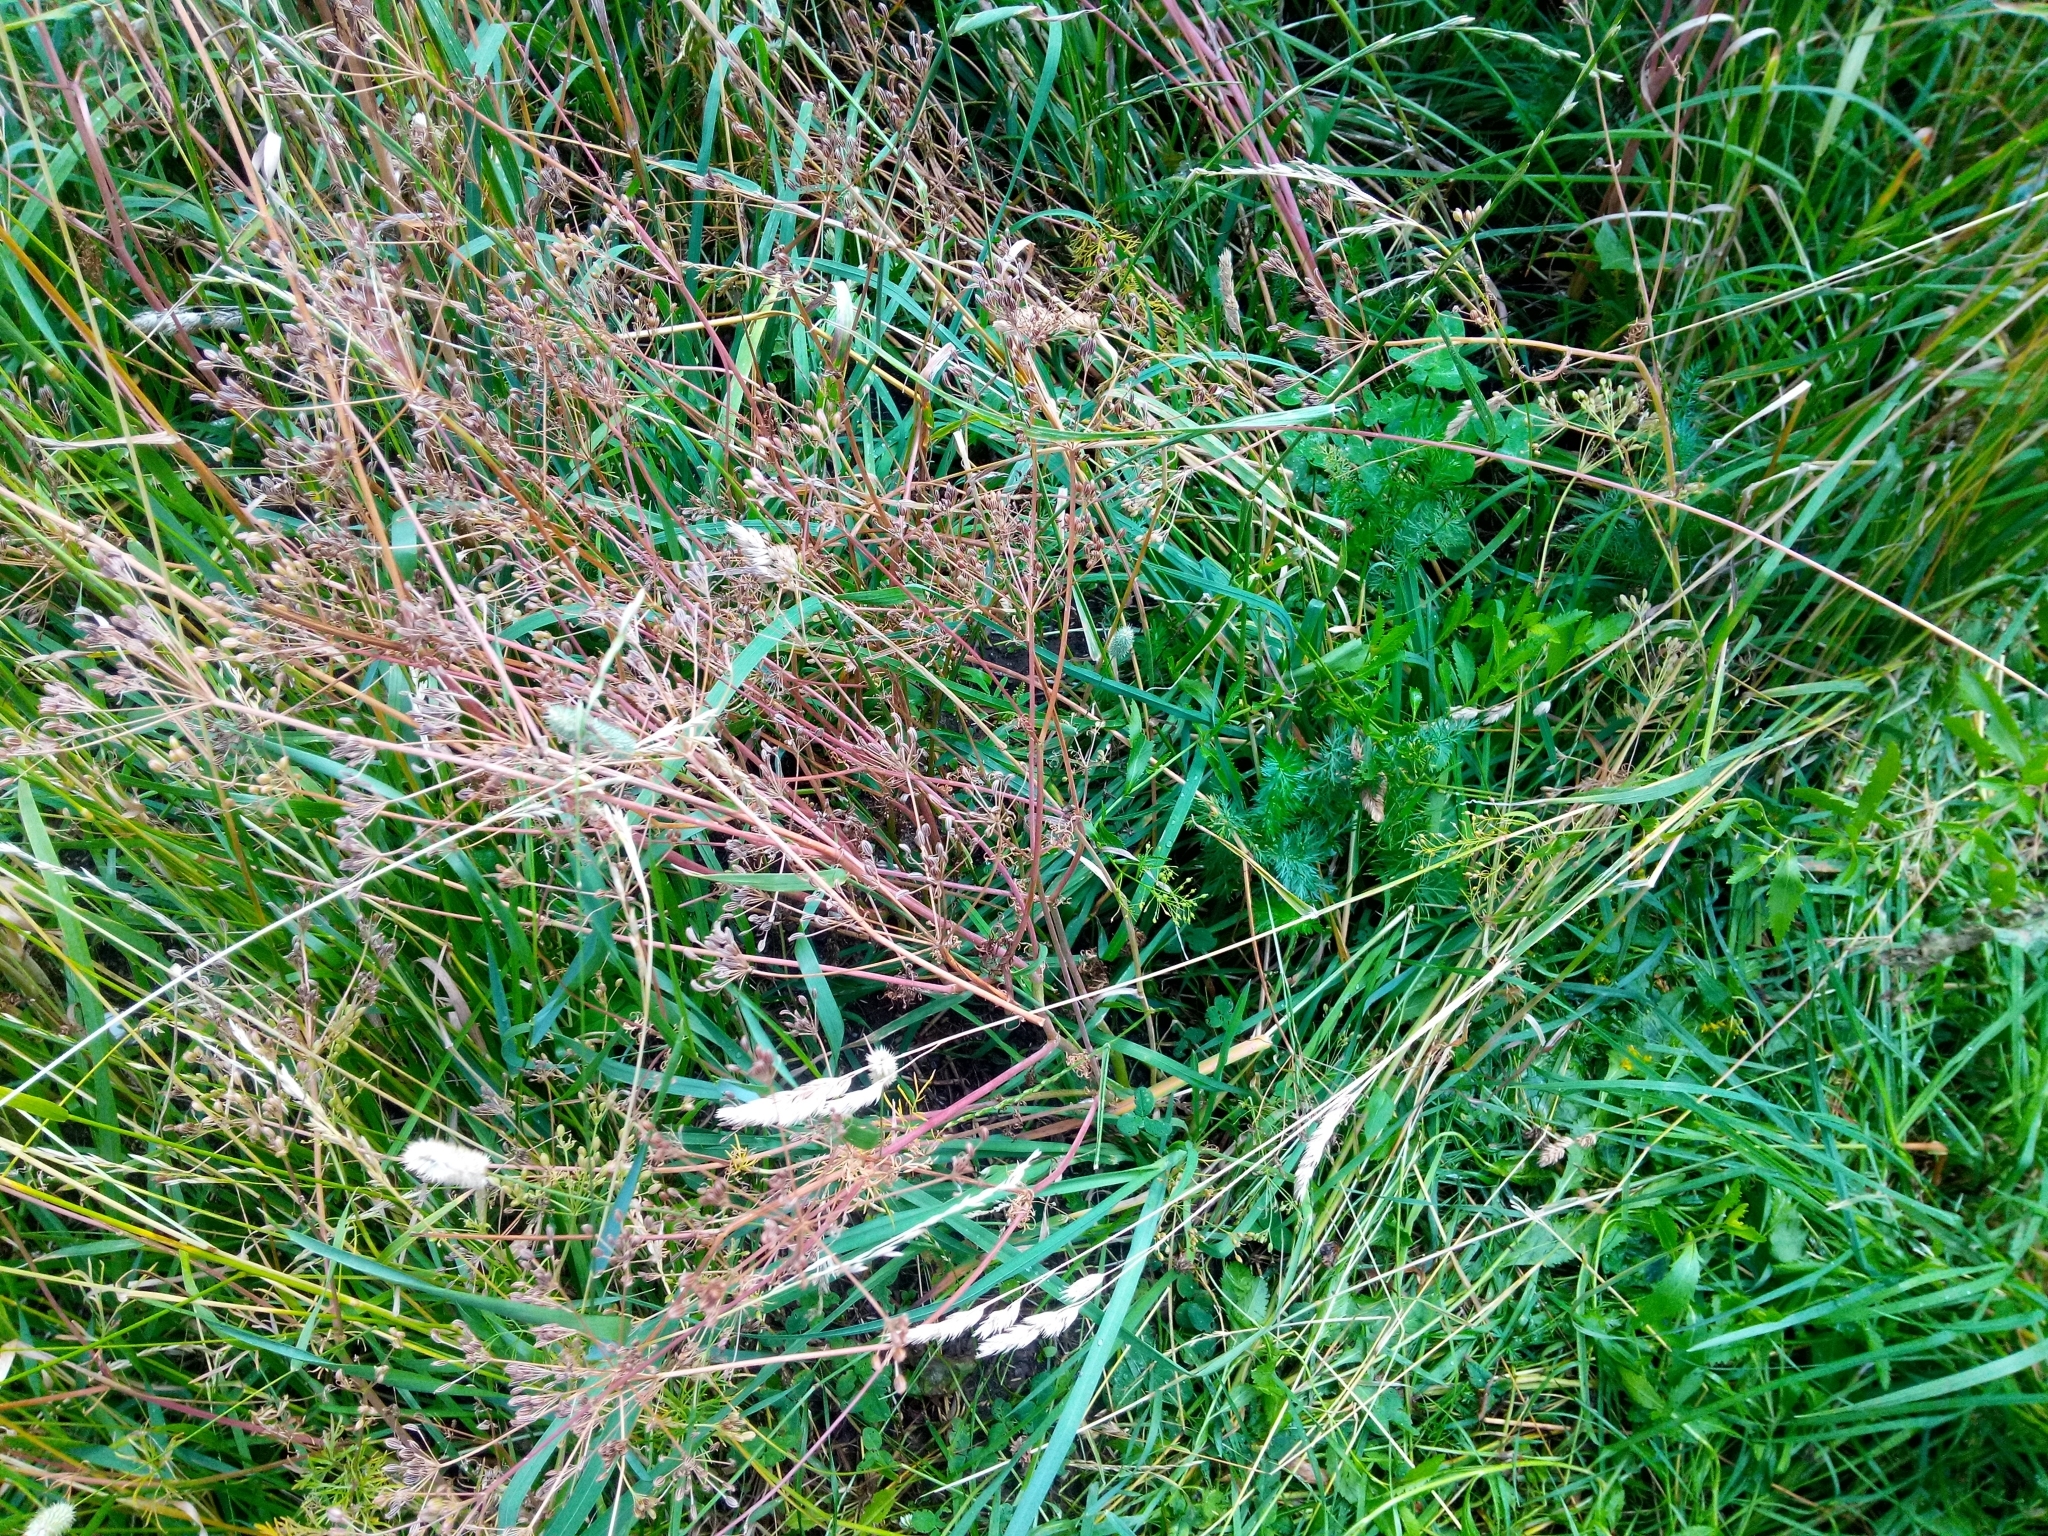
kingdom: Plantae
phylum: Tracheophyta
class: Magnoliopsida
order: Apiales
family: Apiaceae
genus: Carum
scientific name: Carum carvi
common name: Caraway
